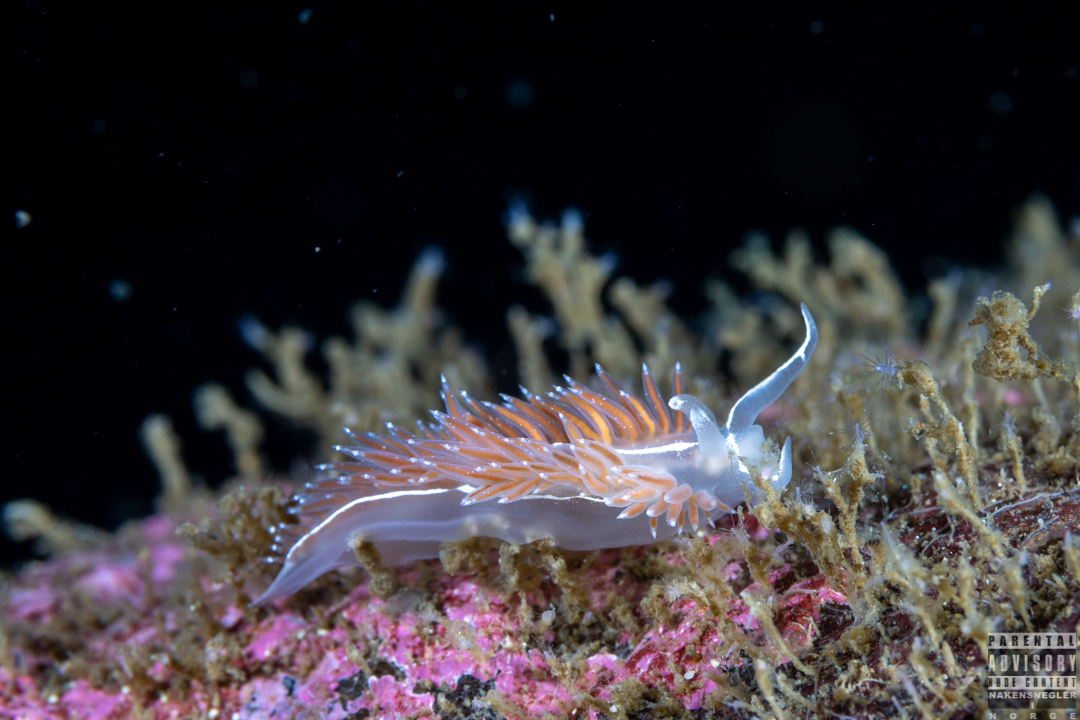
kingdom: Animalia
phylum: Mollusca
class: Gastropoda
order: Nudibranchia
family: Coryphellidae
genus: Coryphella
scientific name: Coryphella monicae
